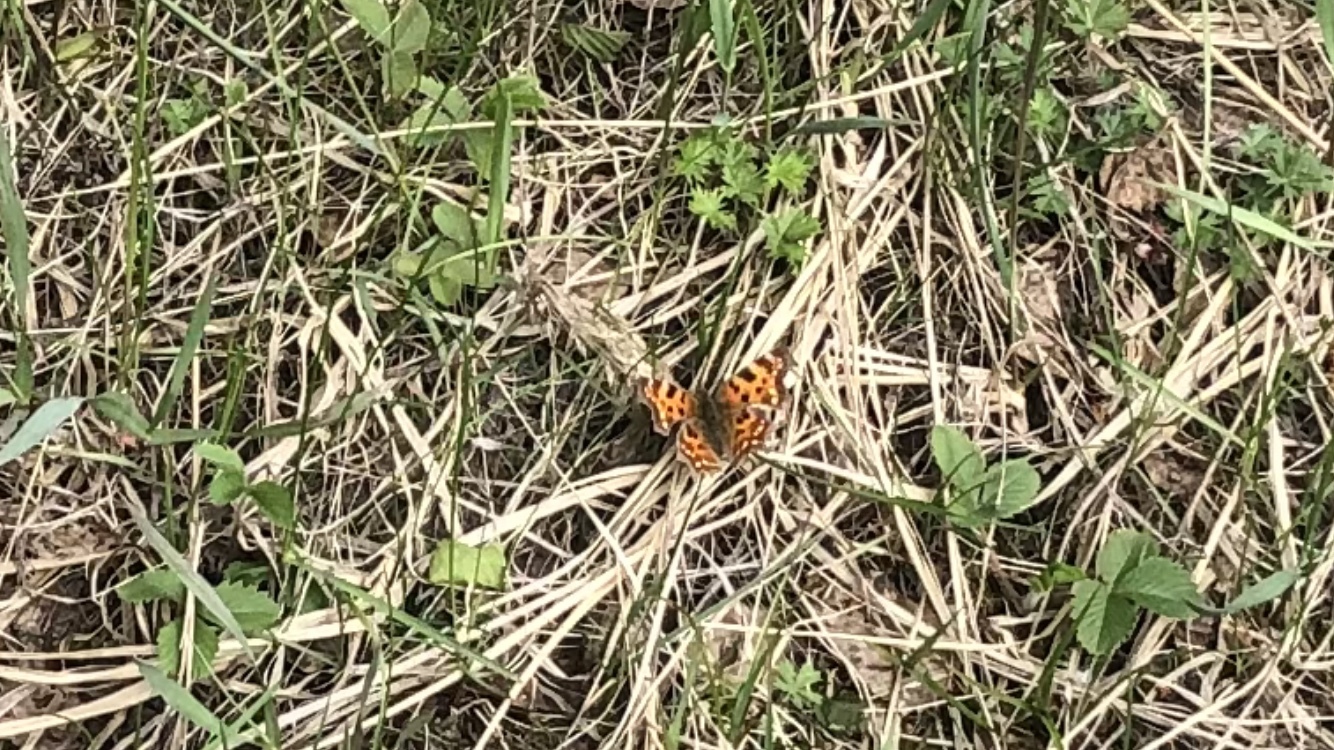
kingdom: Animalia
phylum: Arthropoda
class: Insecta
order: Lepidoptera
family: Nymphalidae
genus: Polygonia
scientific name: Polygonia c-album
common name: Comma
